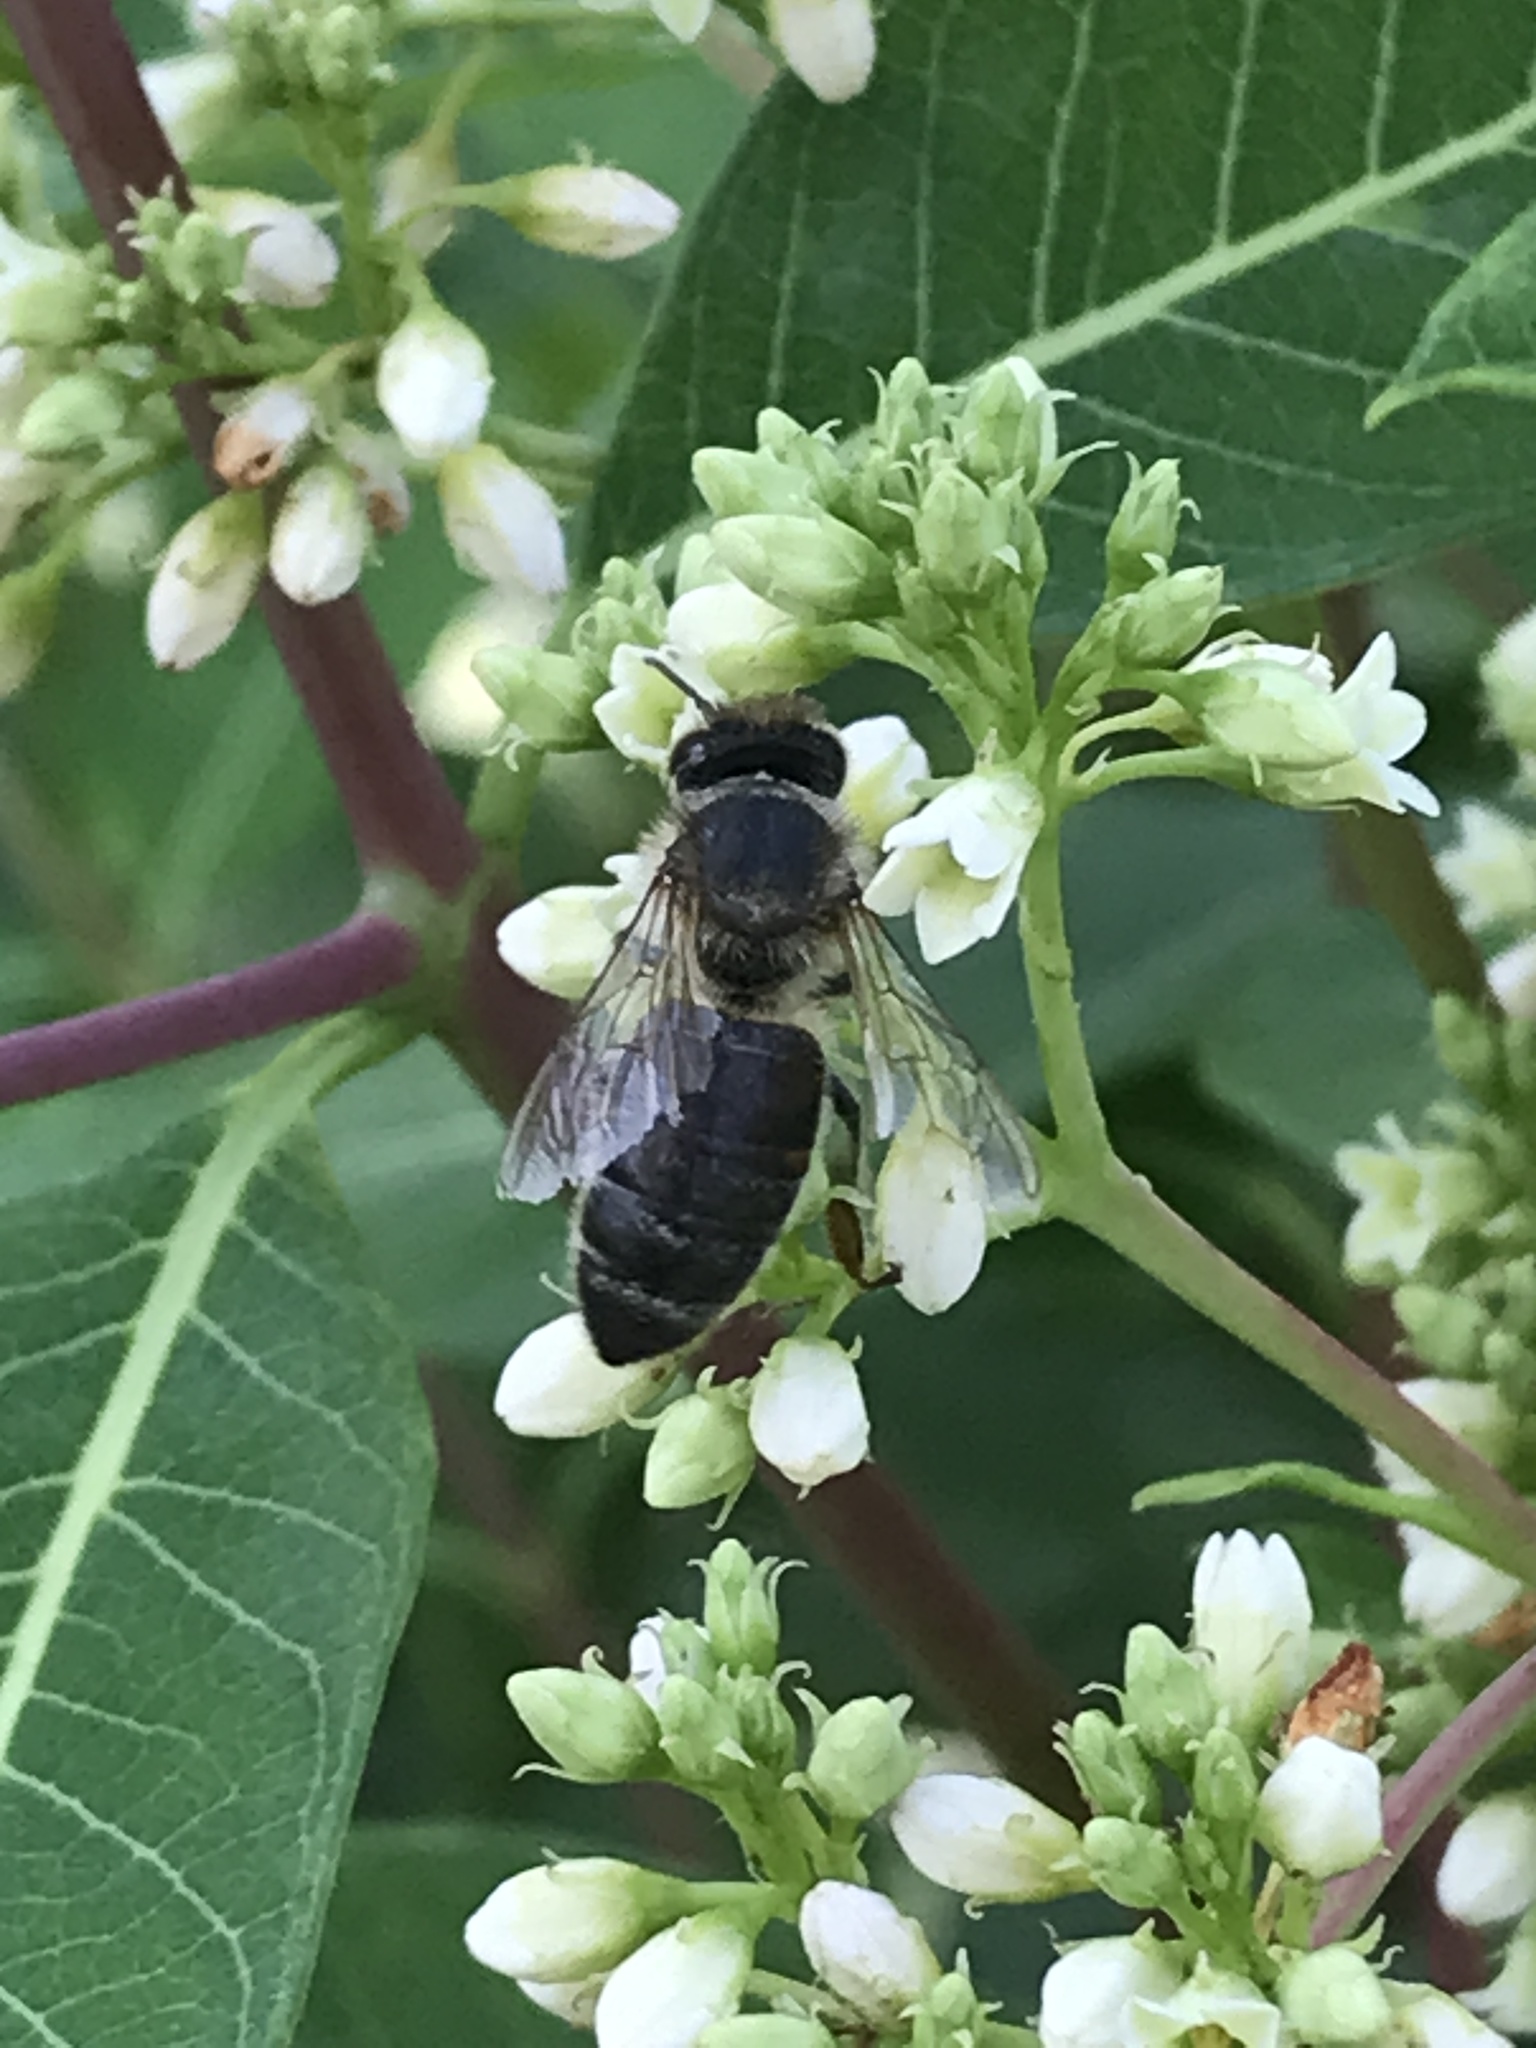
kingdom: Animalia
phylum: Arthropoda
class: Insecta
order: Hymenoptera
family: Apidae
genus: Apis
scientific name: Apis mellifera
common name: Honey bee
